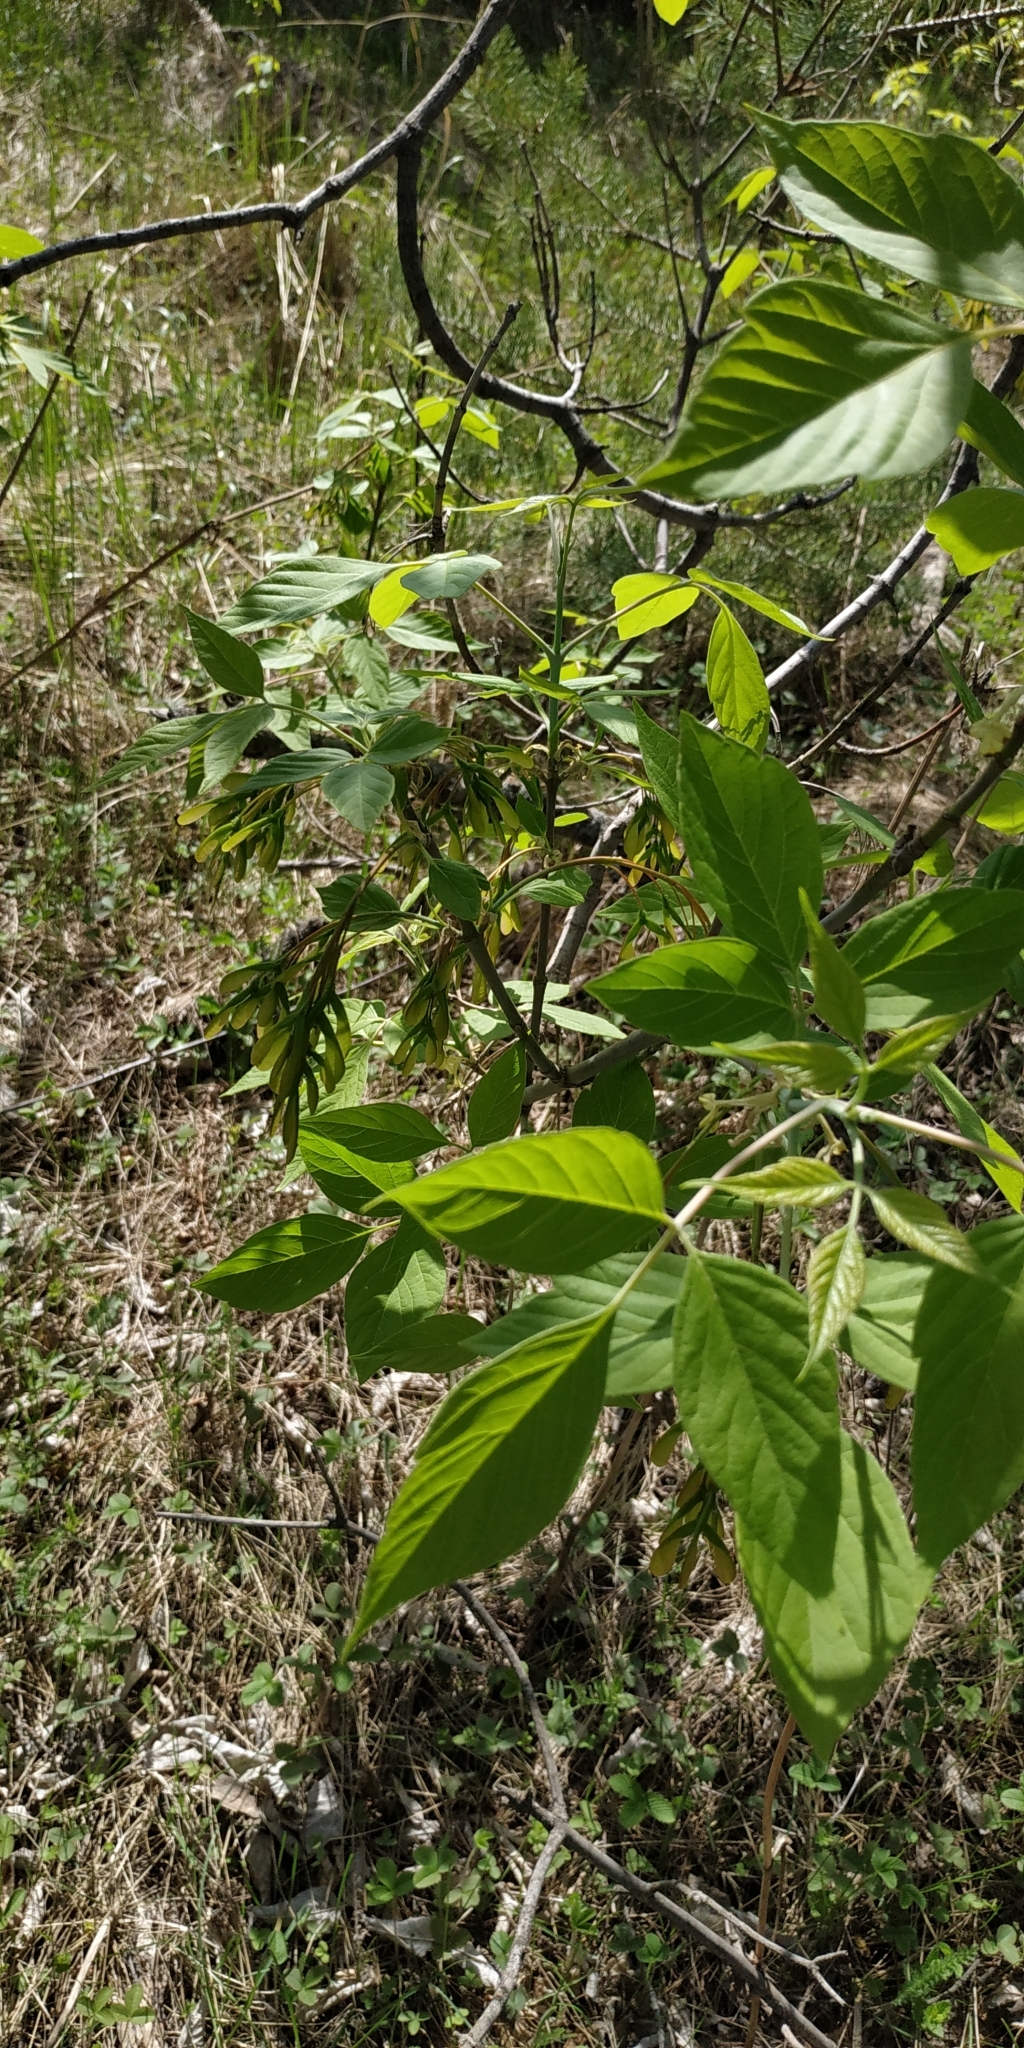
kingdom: Plantae
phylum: Tracheophyta
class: Magnoliopsida
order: Sapindales
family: Sapindaceae
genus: Acer
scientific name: Acer negundo
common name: Ashleaf maple
